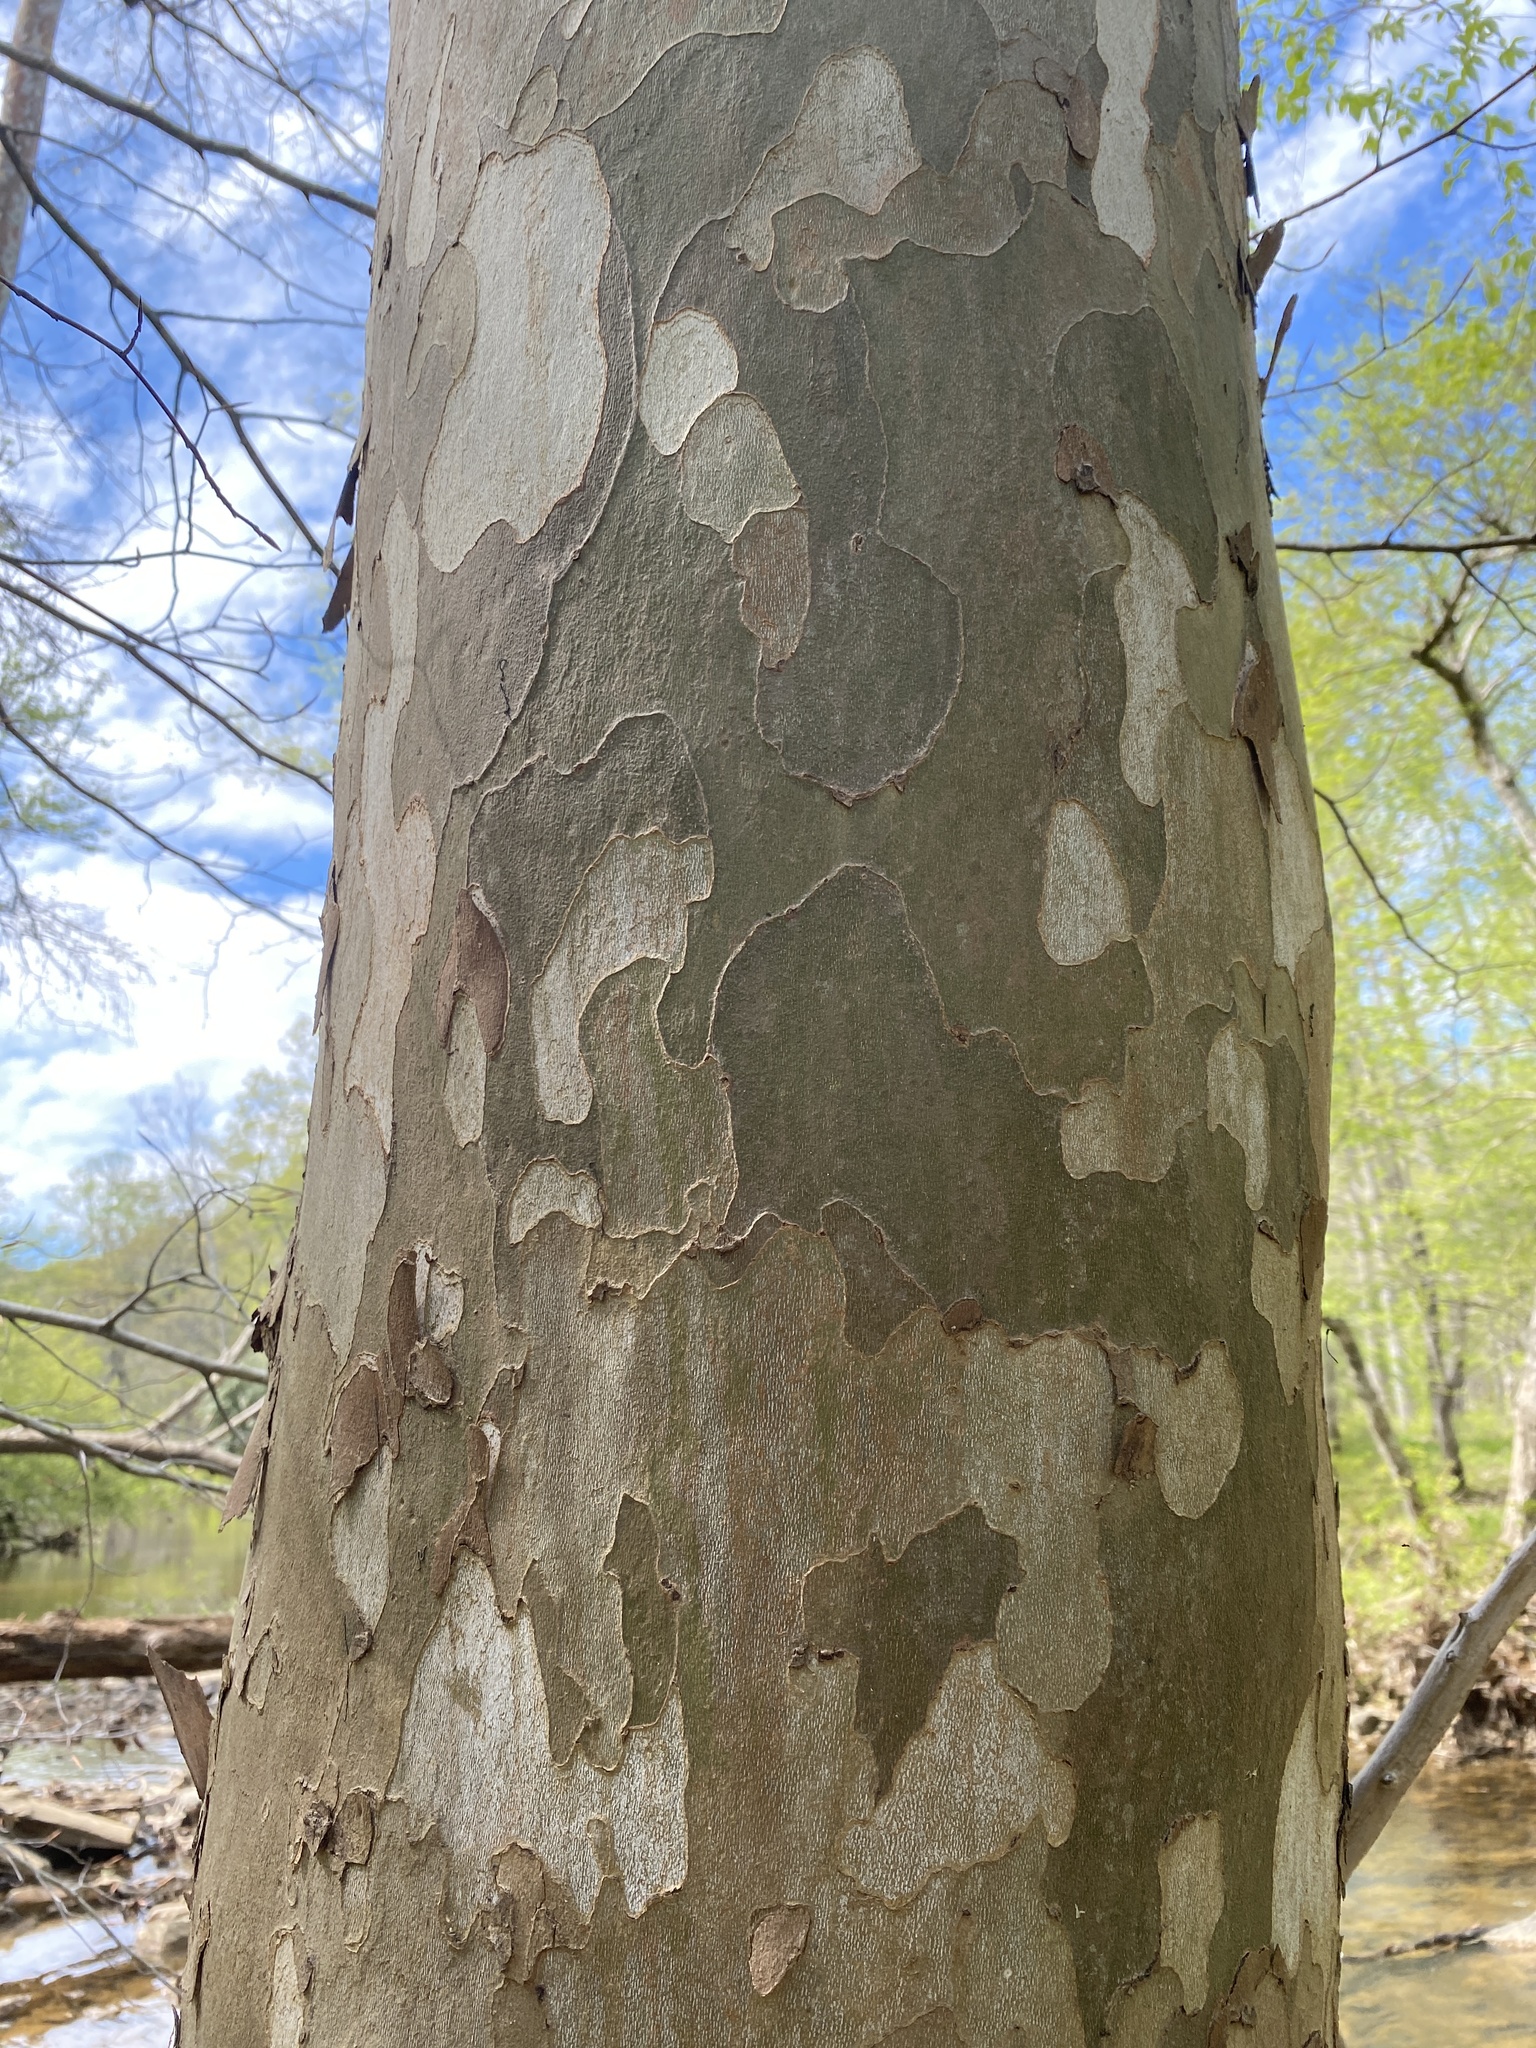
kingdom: Plantae
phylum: Tracheophyta
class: Magnoliopsida
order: Proteales
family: Platanaceae
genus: Platanus
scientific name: Platanus occidentalis
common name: American sycamore
